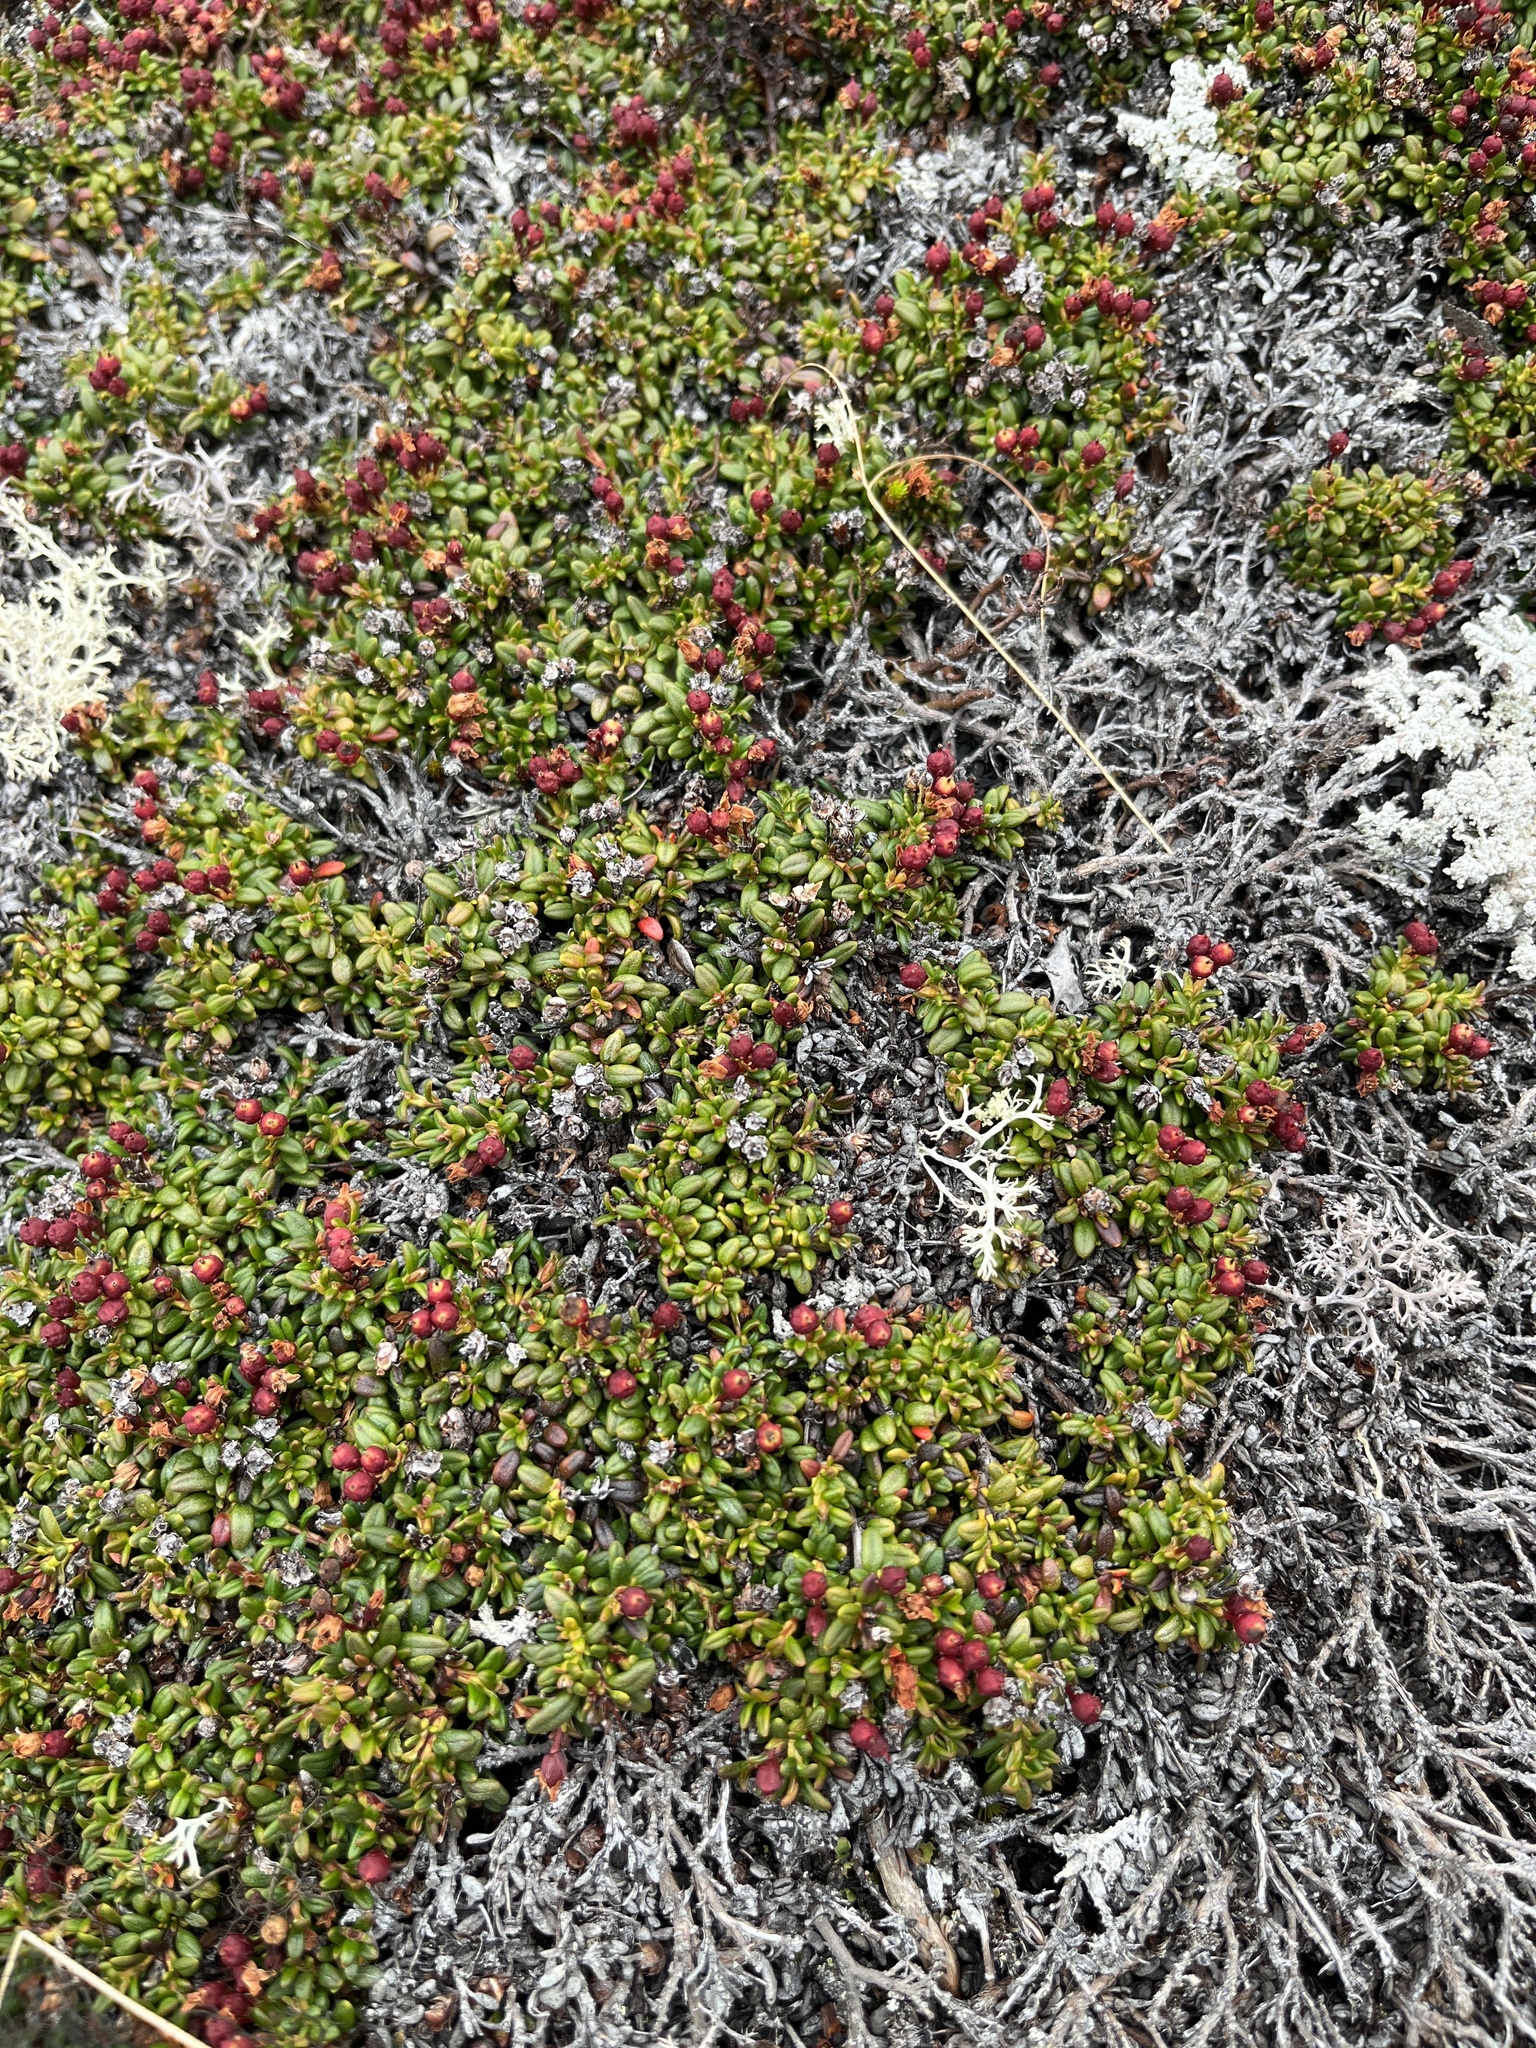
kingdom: Plantae
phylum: Tracheophyta
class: Magnoliopsida
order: Ericales
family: Ericaceae
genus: Kalmia
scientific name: Kalmia procumbens
